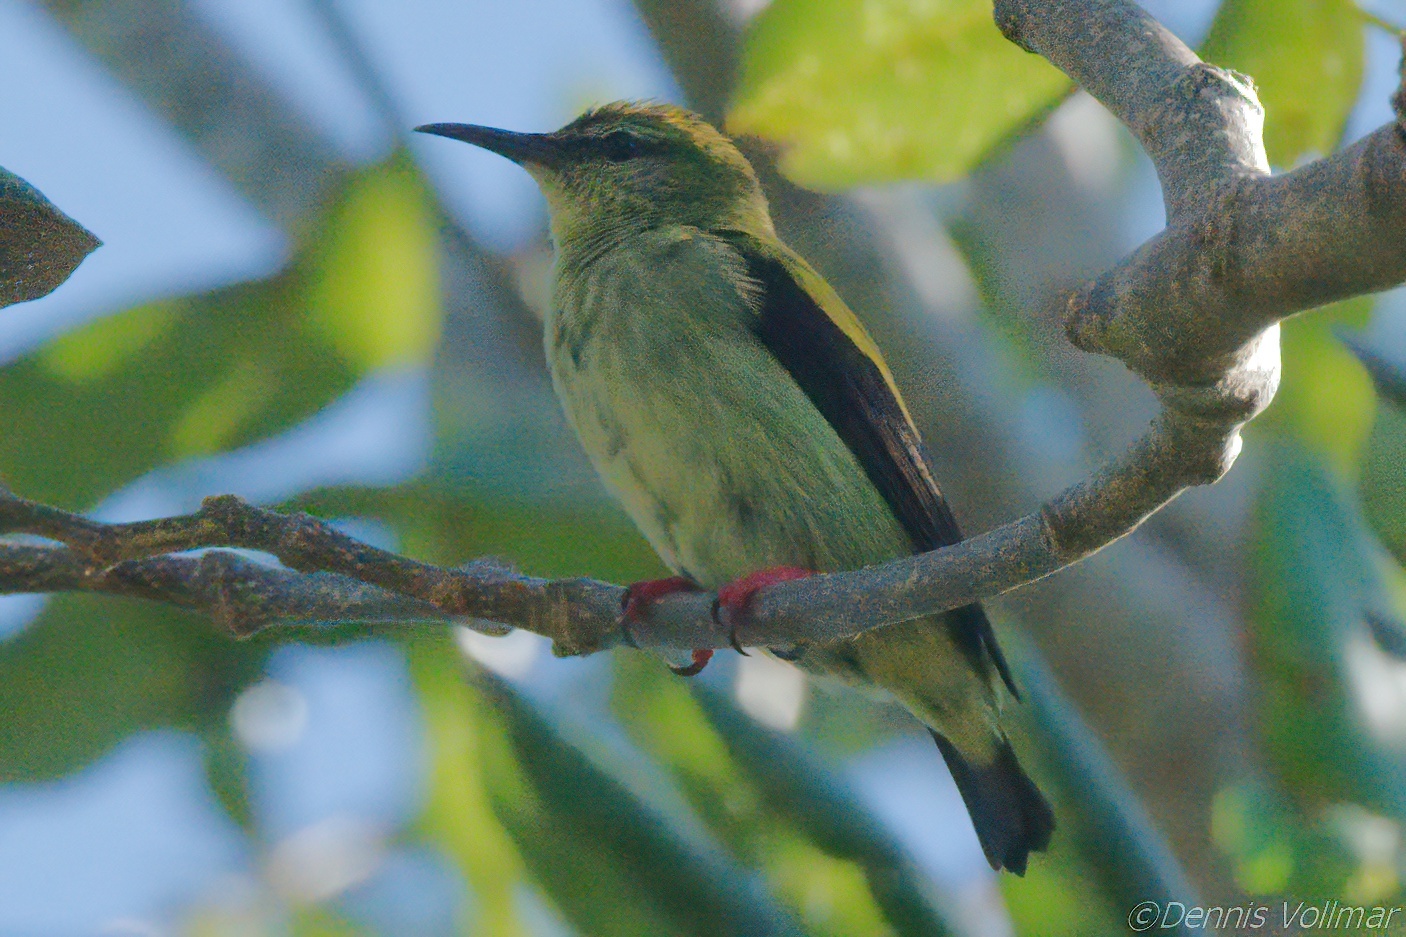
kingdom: Animalia
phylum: Chordata
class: Aves
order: Passeriformes
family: Thraupidae
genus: Cyanerpes
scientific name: Cyanerpes cyaneus
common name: Red-legged honeycreeper
